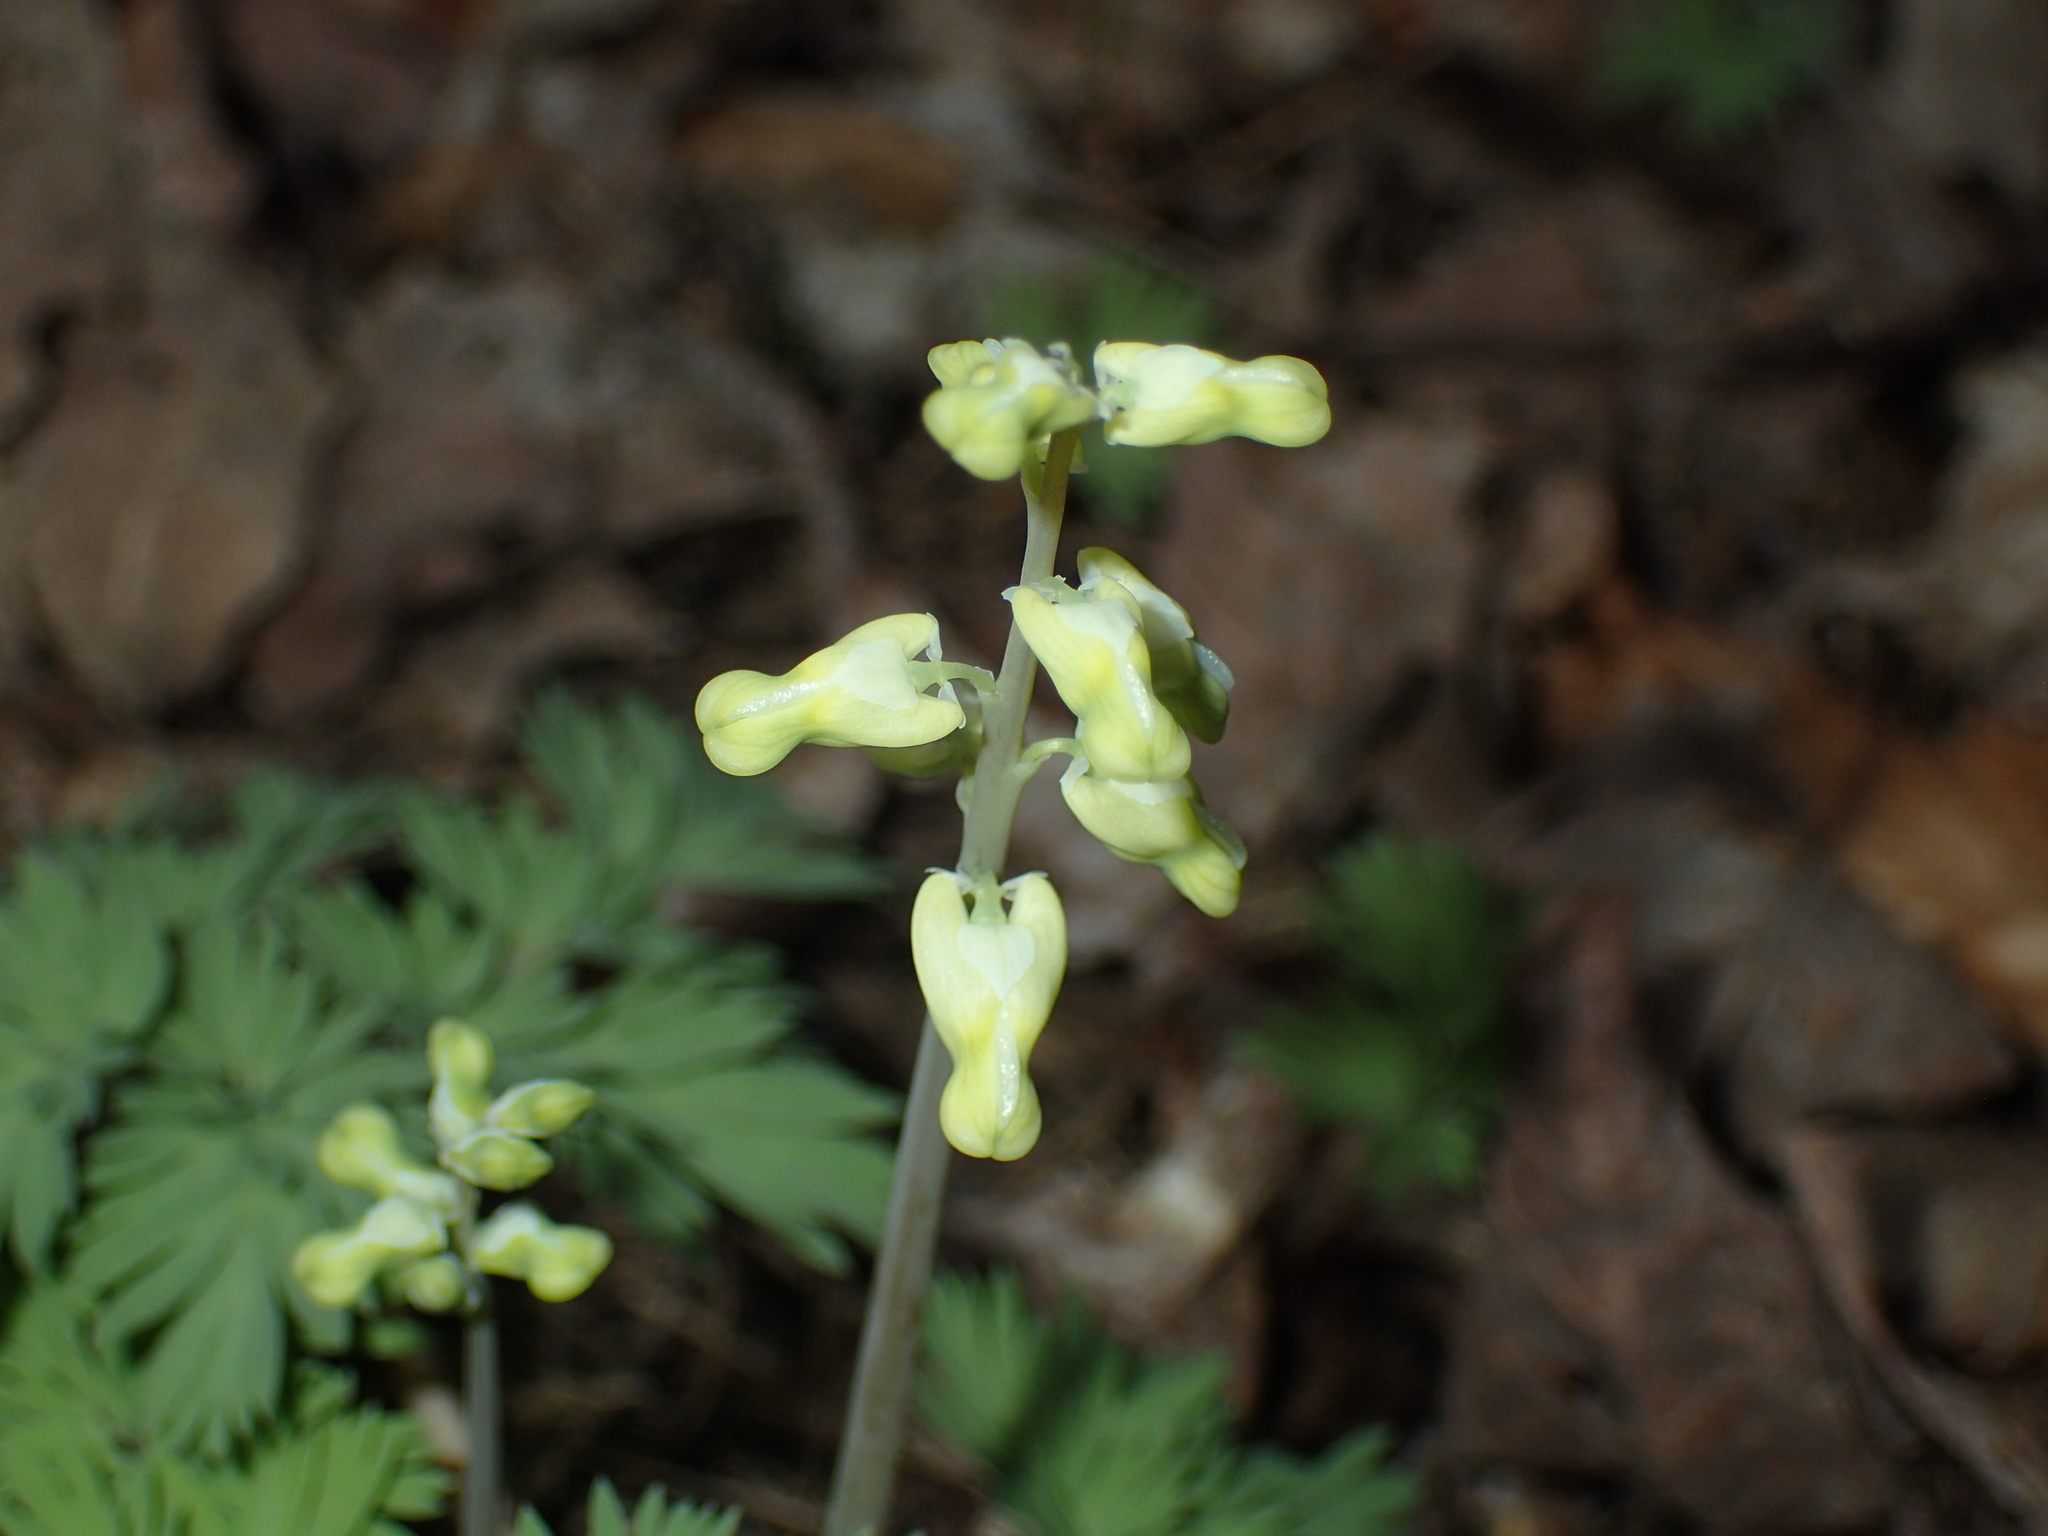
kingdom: Plantae
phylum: Tracheophyta
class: Magnoliopsida
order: Ranunculales
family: Papaveraceae
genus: Dicentra
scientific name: Dicentra cucullaria
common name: Dutchman's breeches
